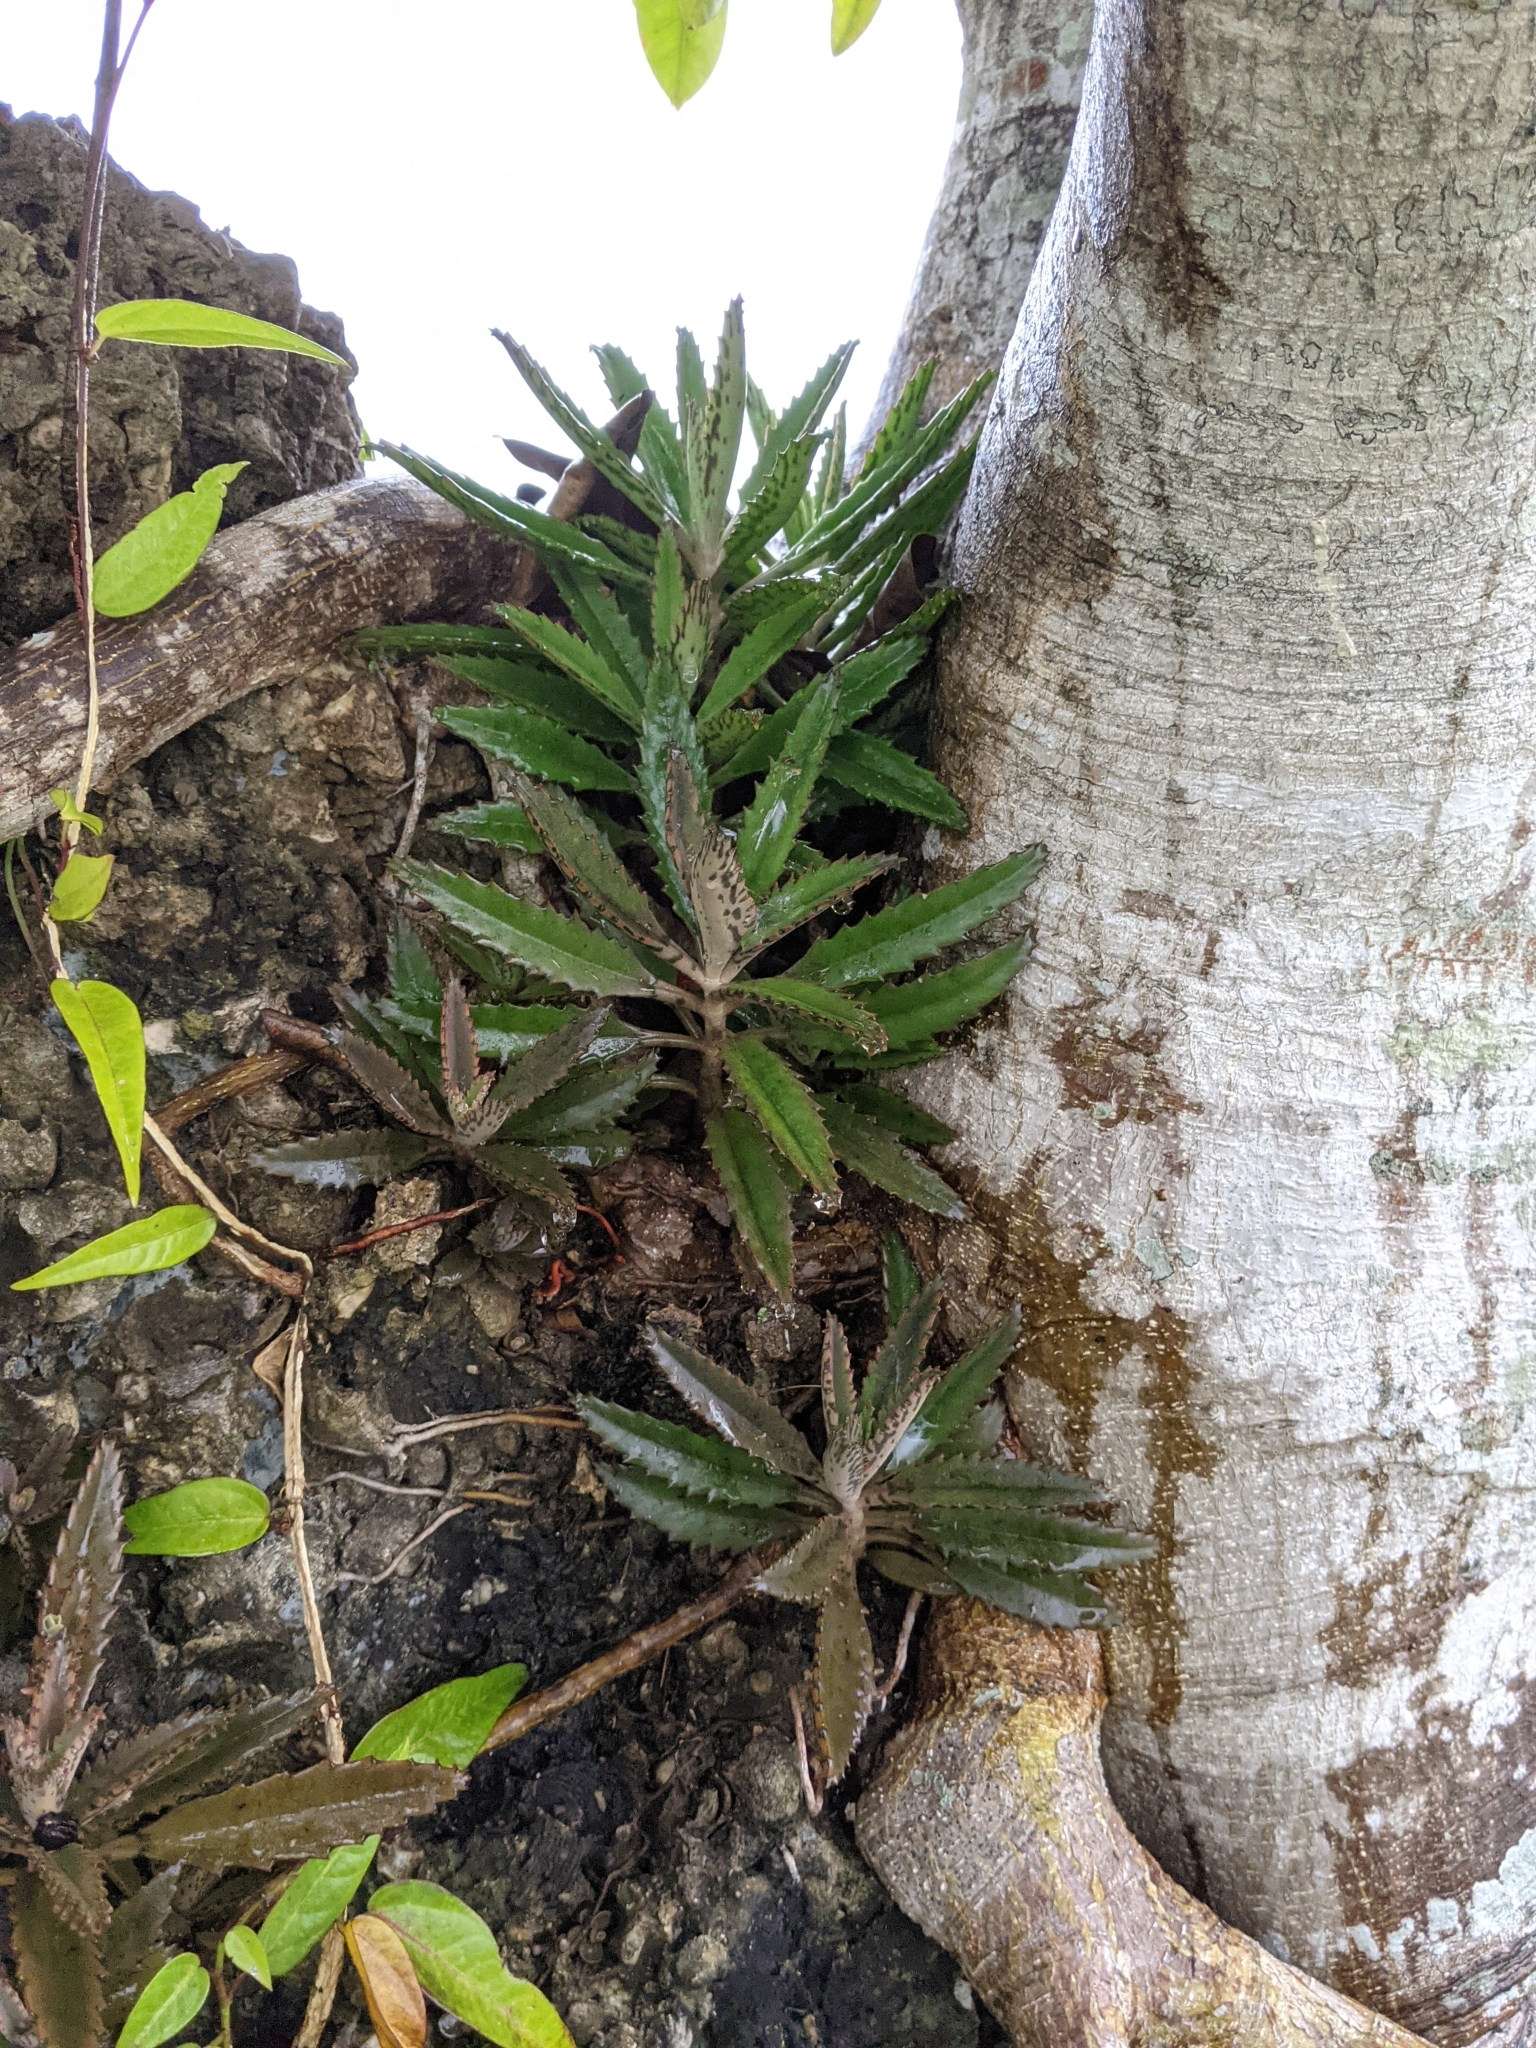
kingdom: Plantae
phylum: Tracheophyta
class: Magnoliopsida
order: Saxifragales
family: Crassulaceae
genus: Kalanchoe
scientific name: Kalanchoe houghtonii
